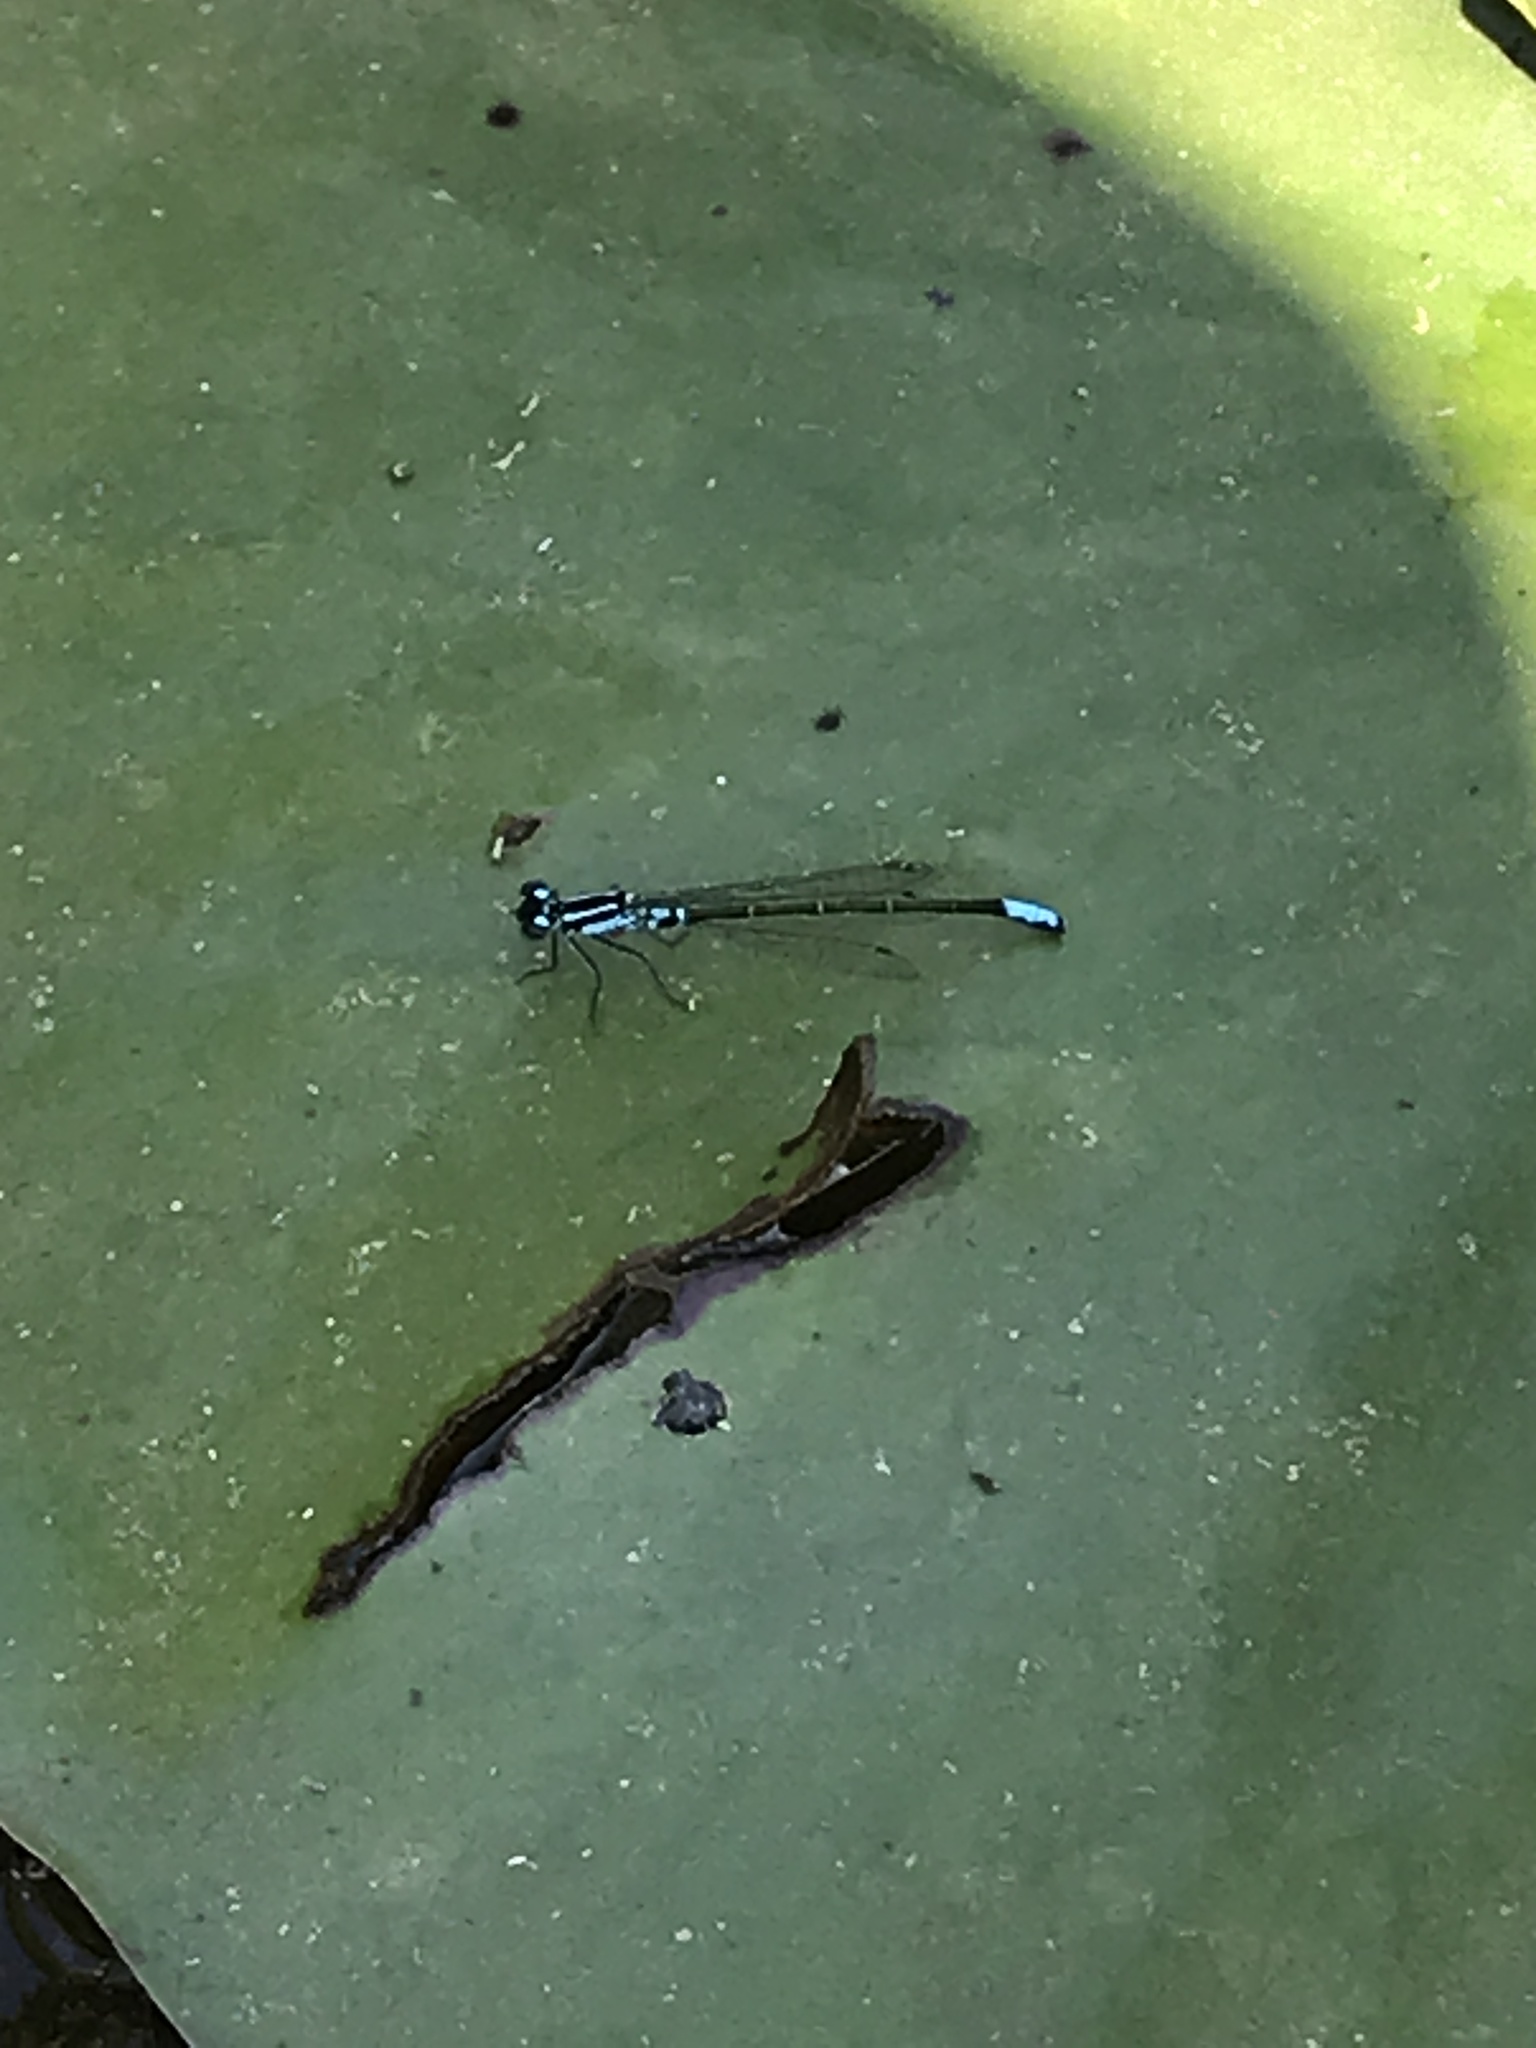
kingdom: Animalia
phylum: Arthropoda
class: Insecta
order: Odonata
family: Coenagrionidae
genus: Ischnura
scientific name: Ischnura kellicotti
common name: Lilypad forktail
